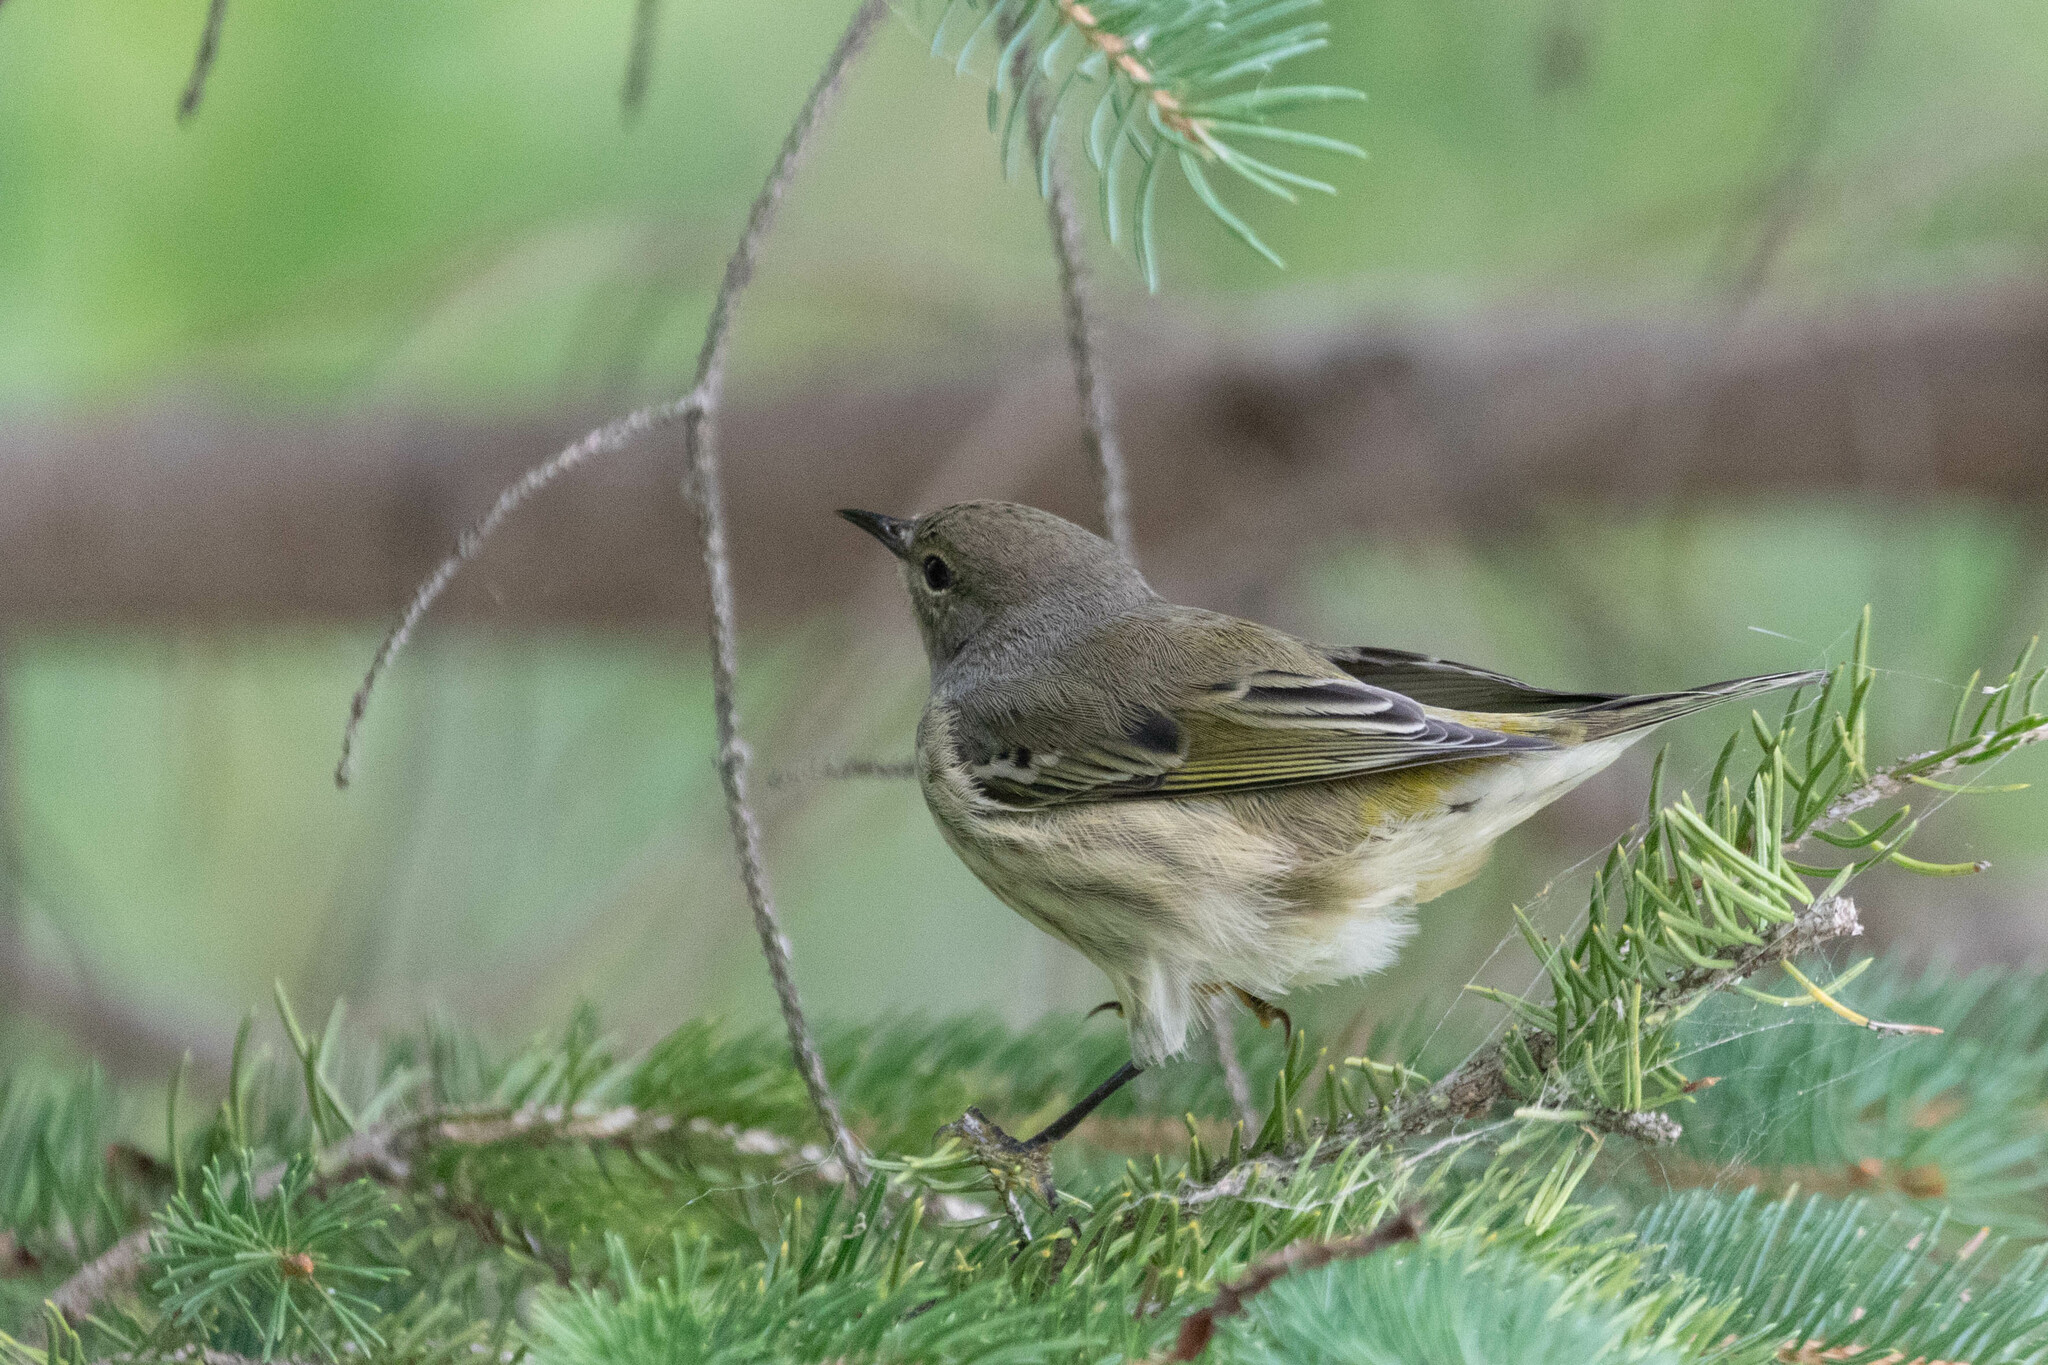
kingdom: Animalia
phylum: Chordata
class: Aves
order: Passeriformes
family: Parulidae
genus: Setophaga
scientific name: Setophaga tigrina
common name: Cape may warbler
